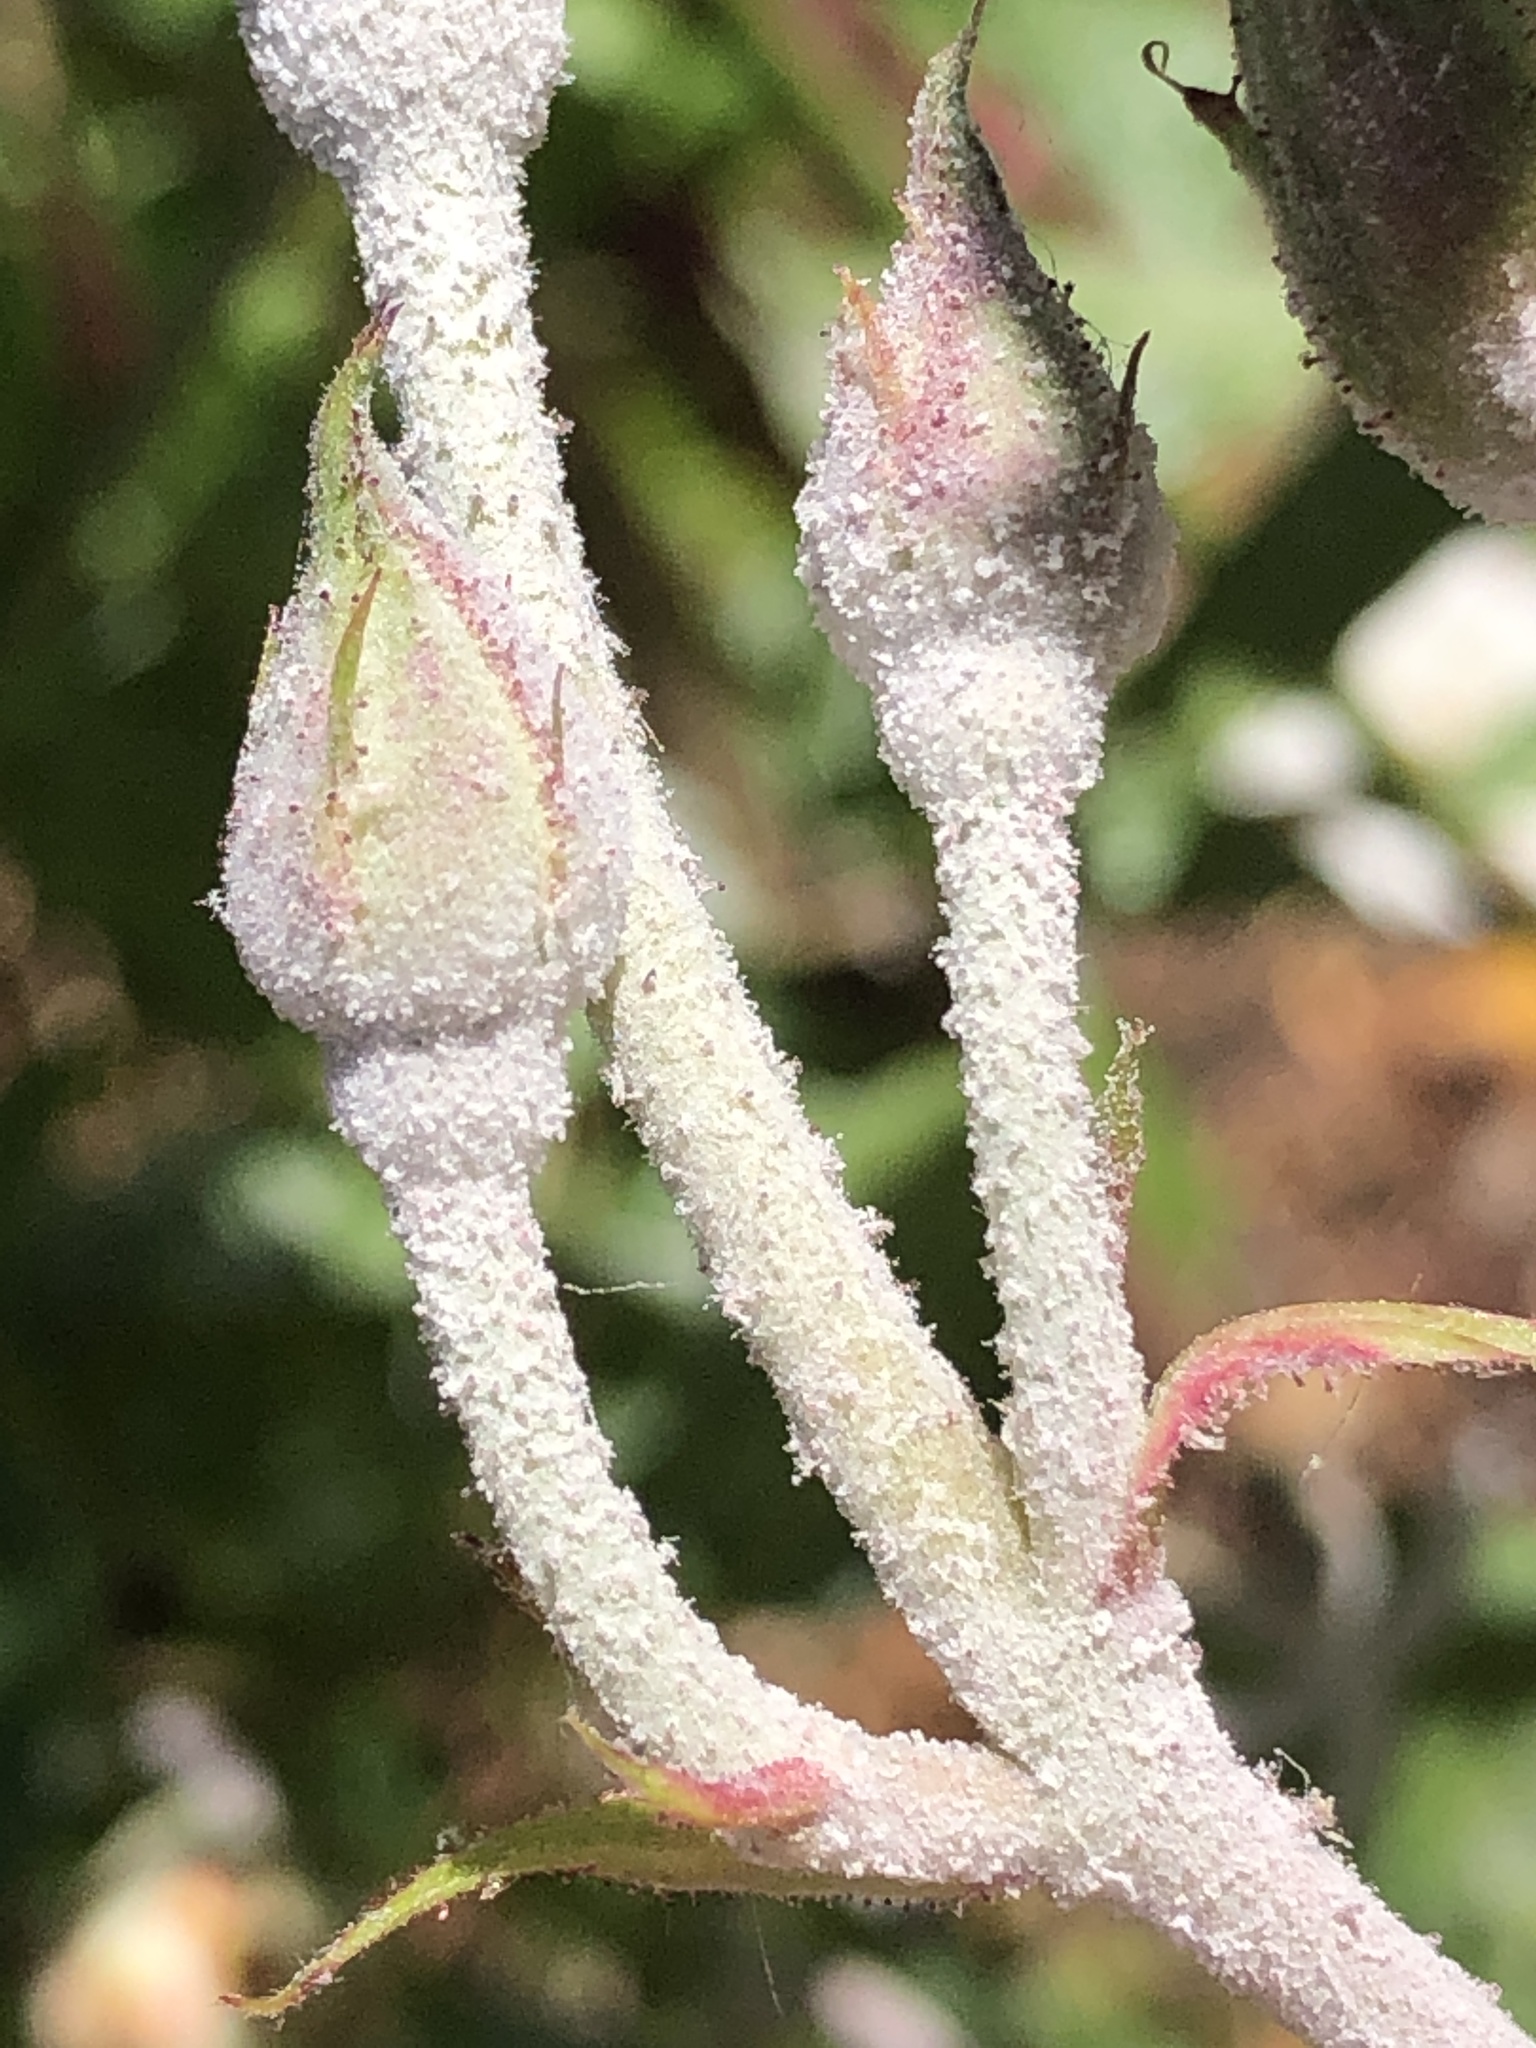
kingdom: Fungi
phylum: Ascomycota
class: Leotiomycetes
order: Helotiales
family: Erysiphaceae
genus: Podosphaera
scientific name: Podosphaera pannosa
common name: Rose mildew
